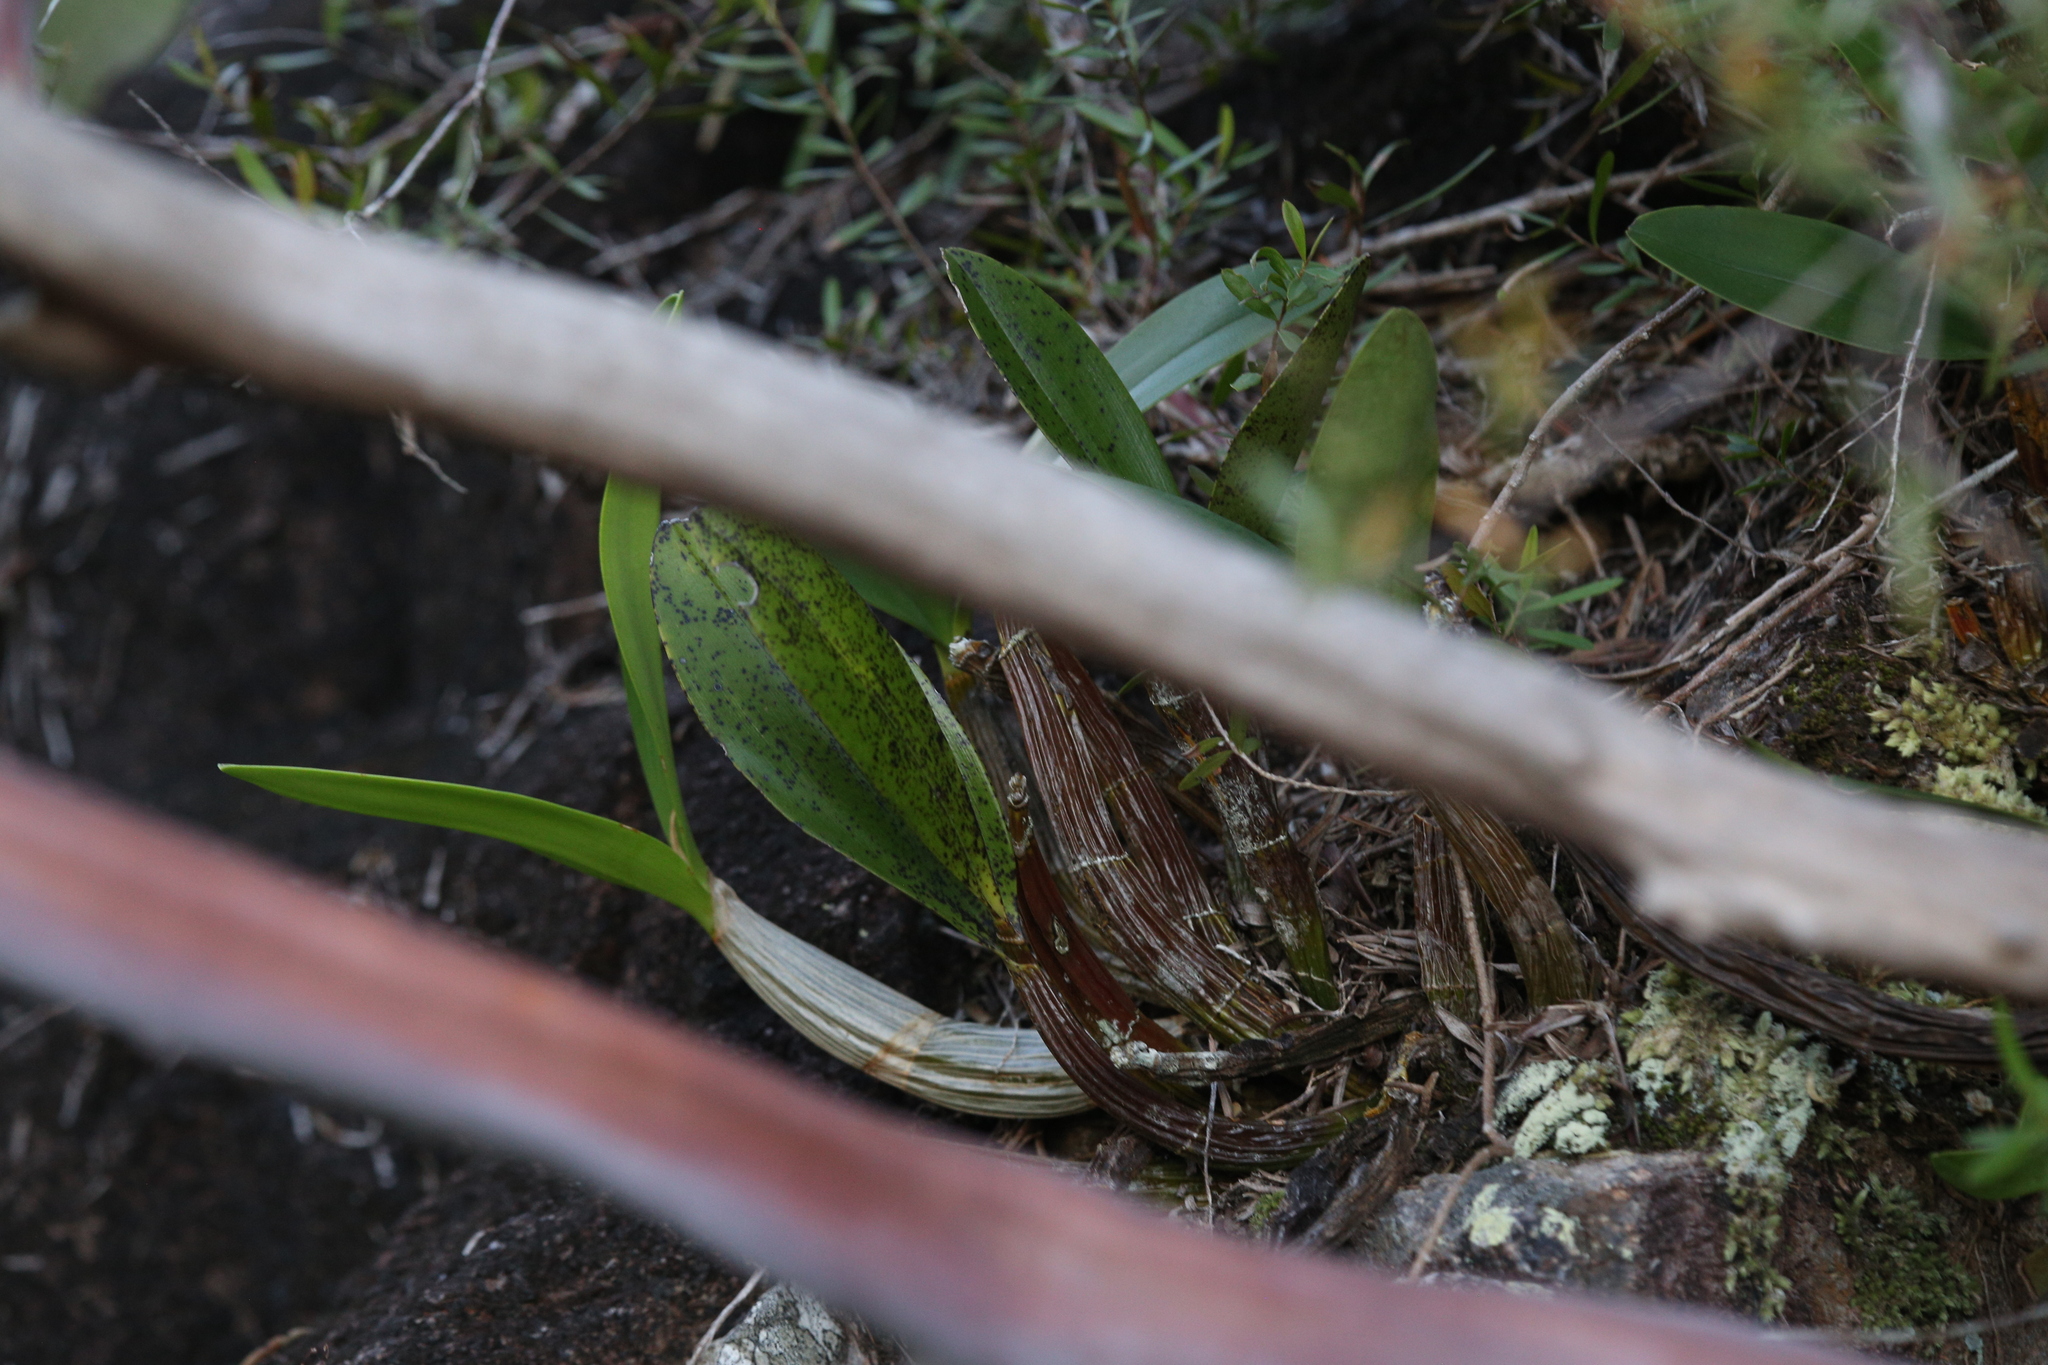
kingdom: Plantae
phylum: Tracheophyta
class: Liliopsida
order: Asparagales
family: Orchidaceae
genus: Dendrobium
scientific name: Dendrobium speciosum
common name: Rock-lily
